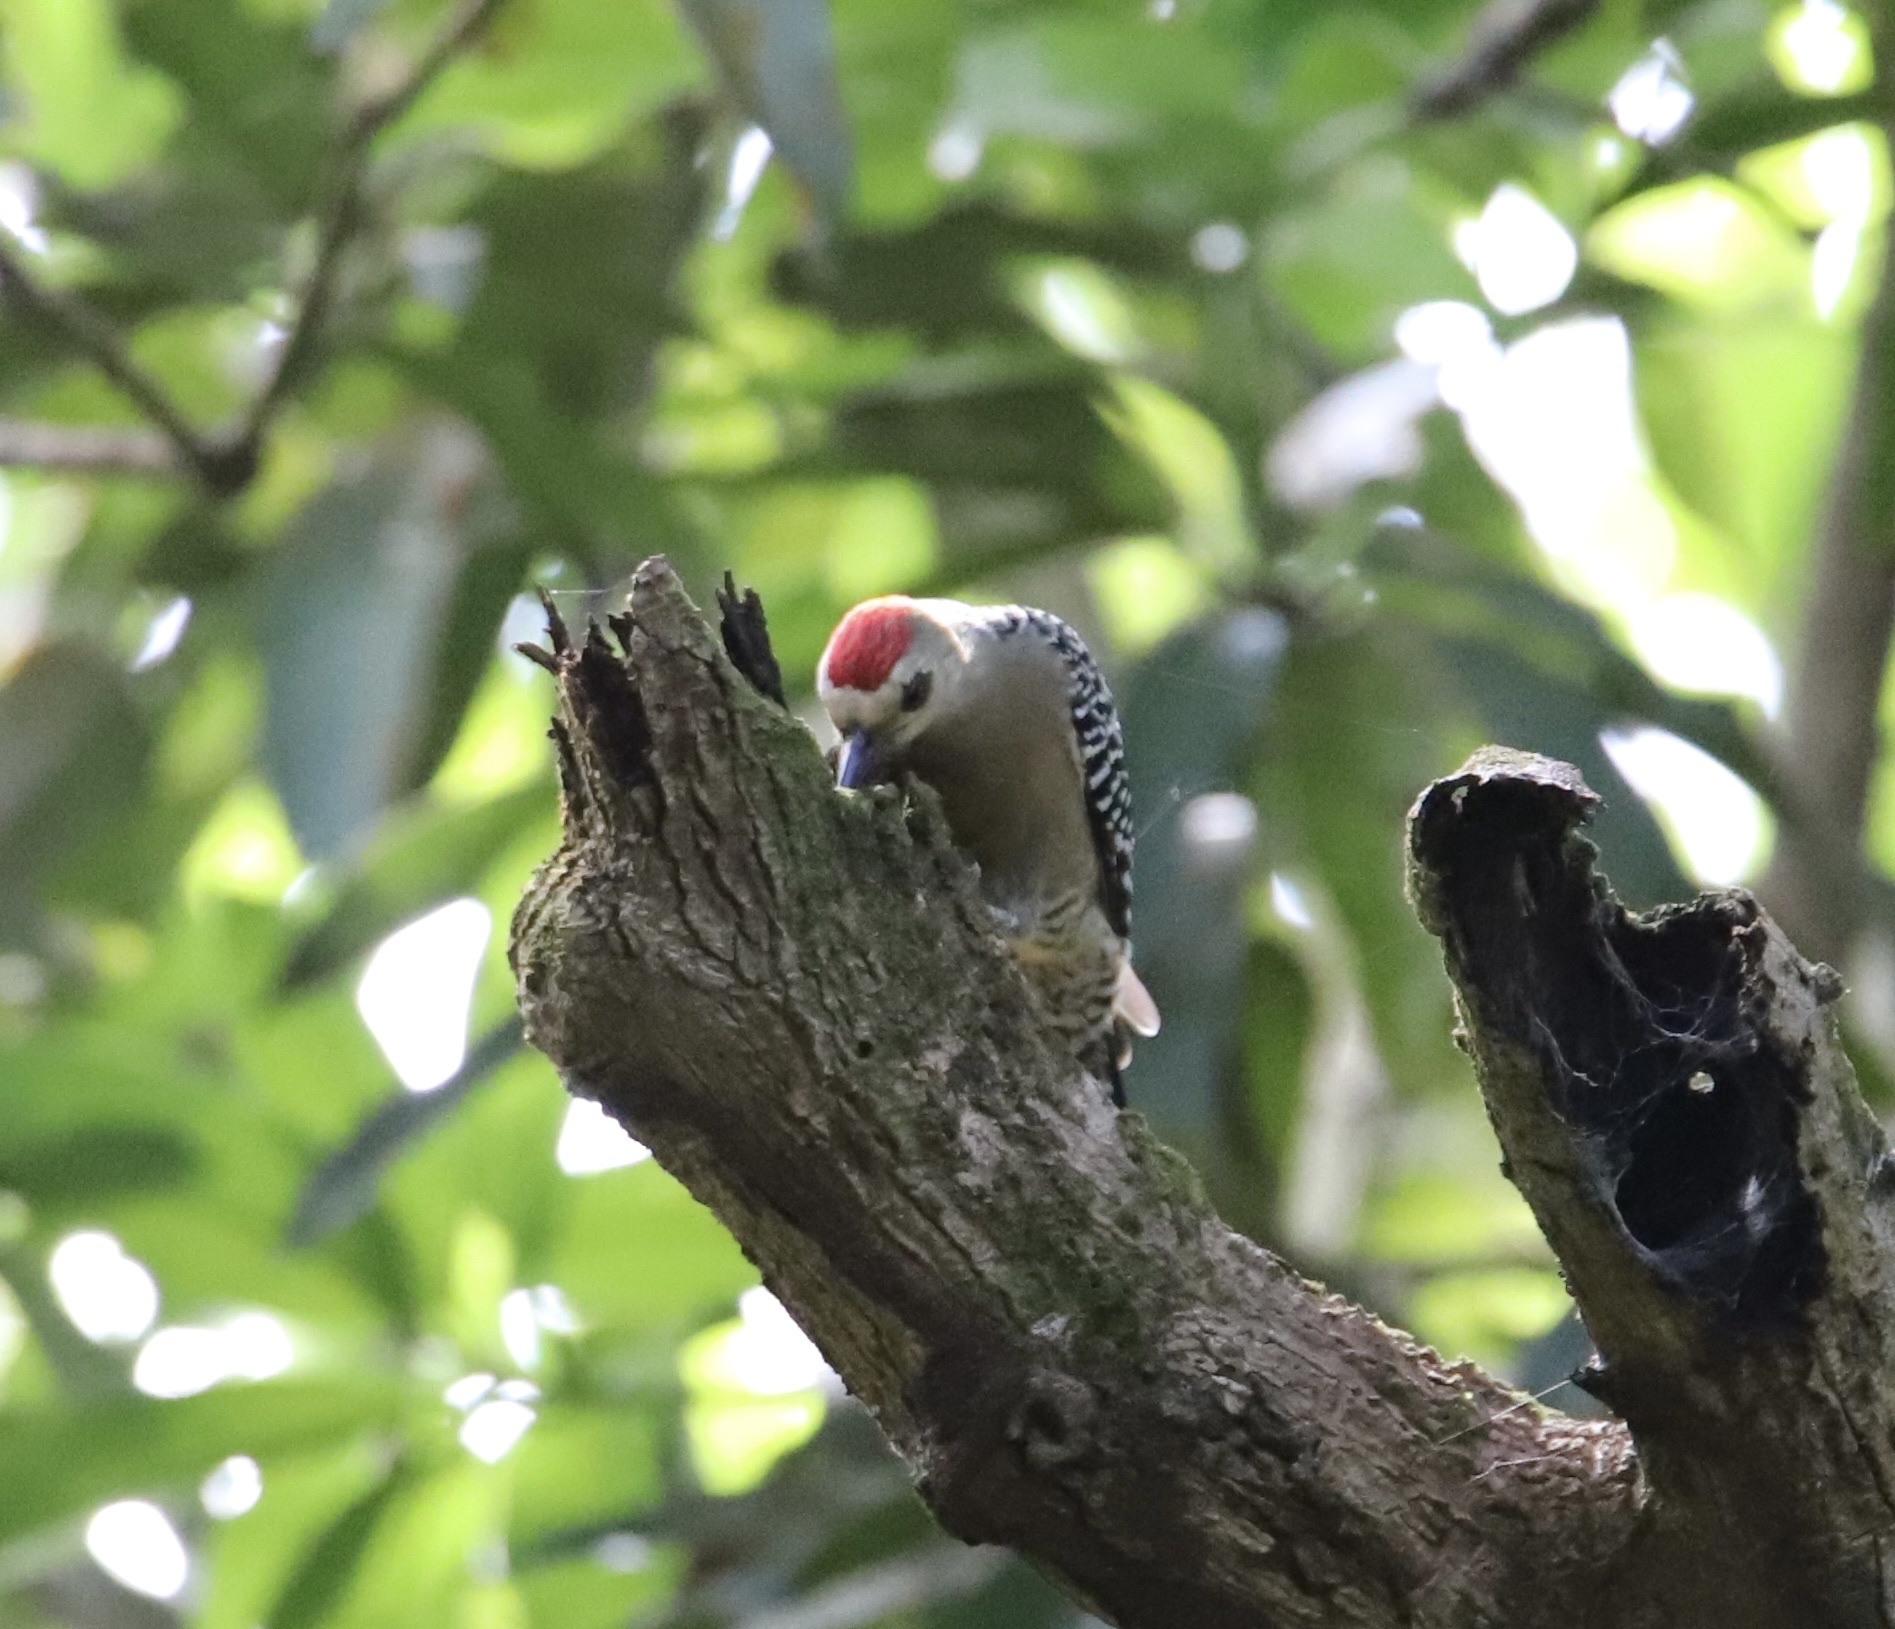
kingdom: Animalia
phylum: Chordata
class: Aves
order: Piciformes
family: Picidae
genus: Melanerpes
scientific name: Melanerpes rubricapillus
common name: Red-crowned woodpecker
